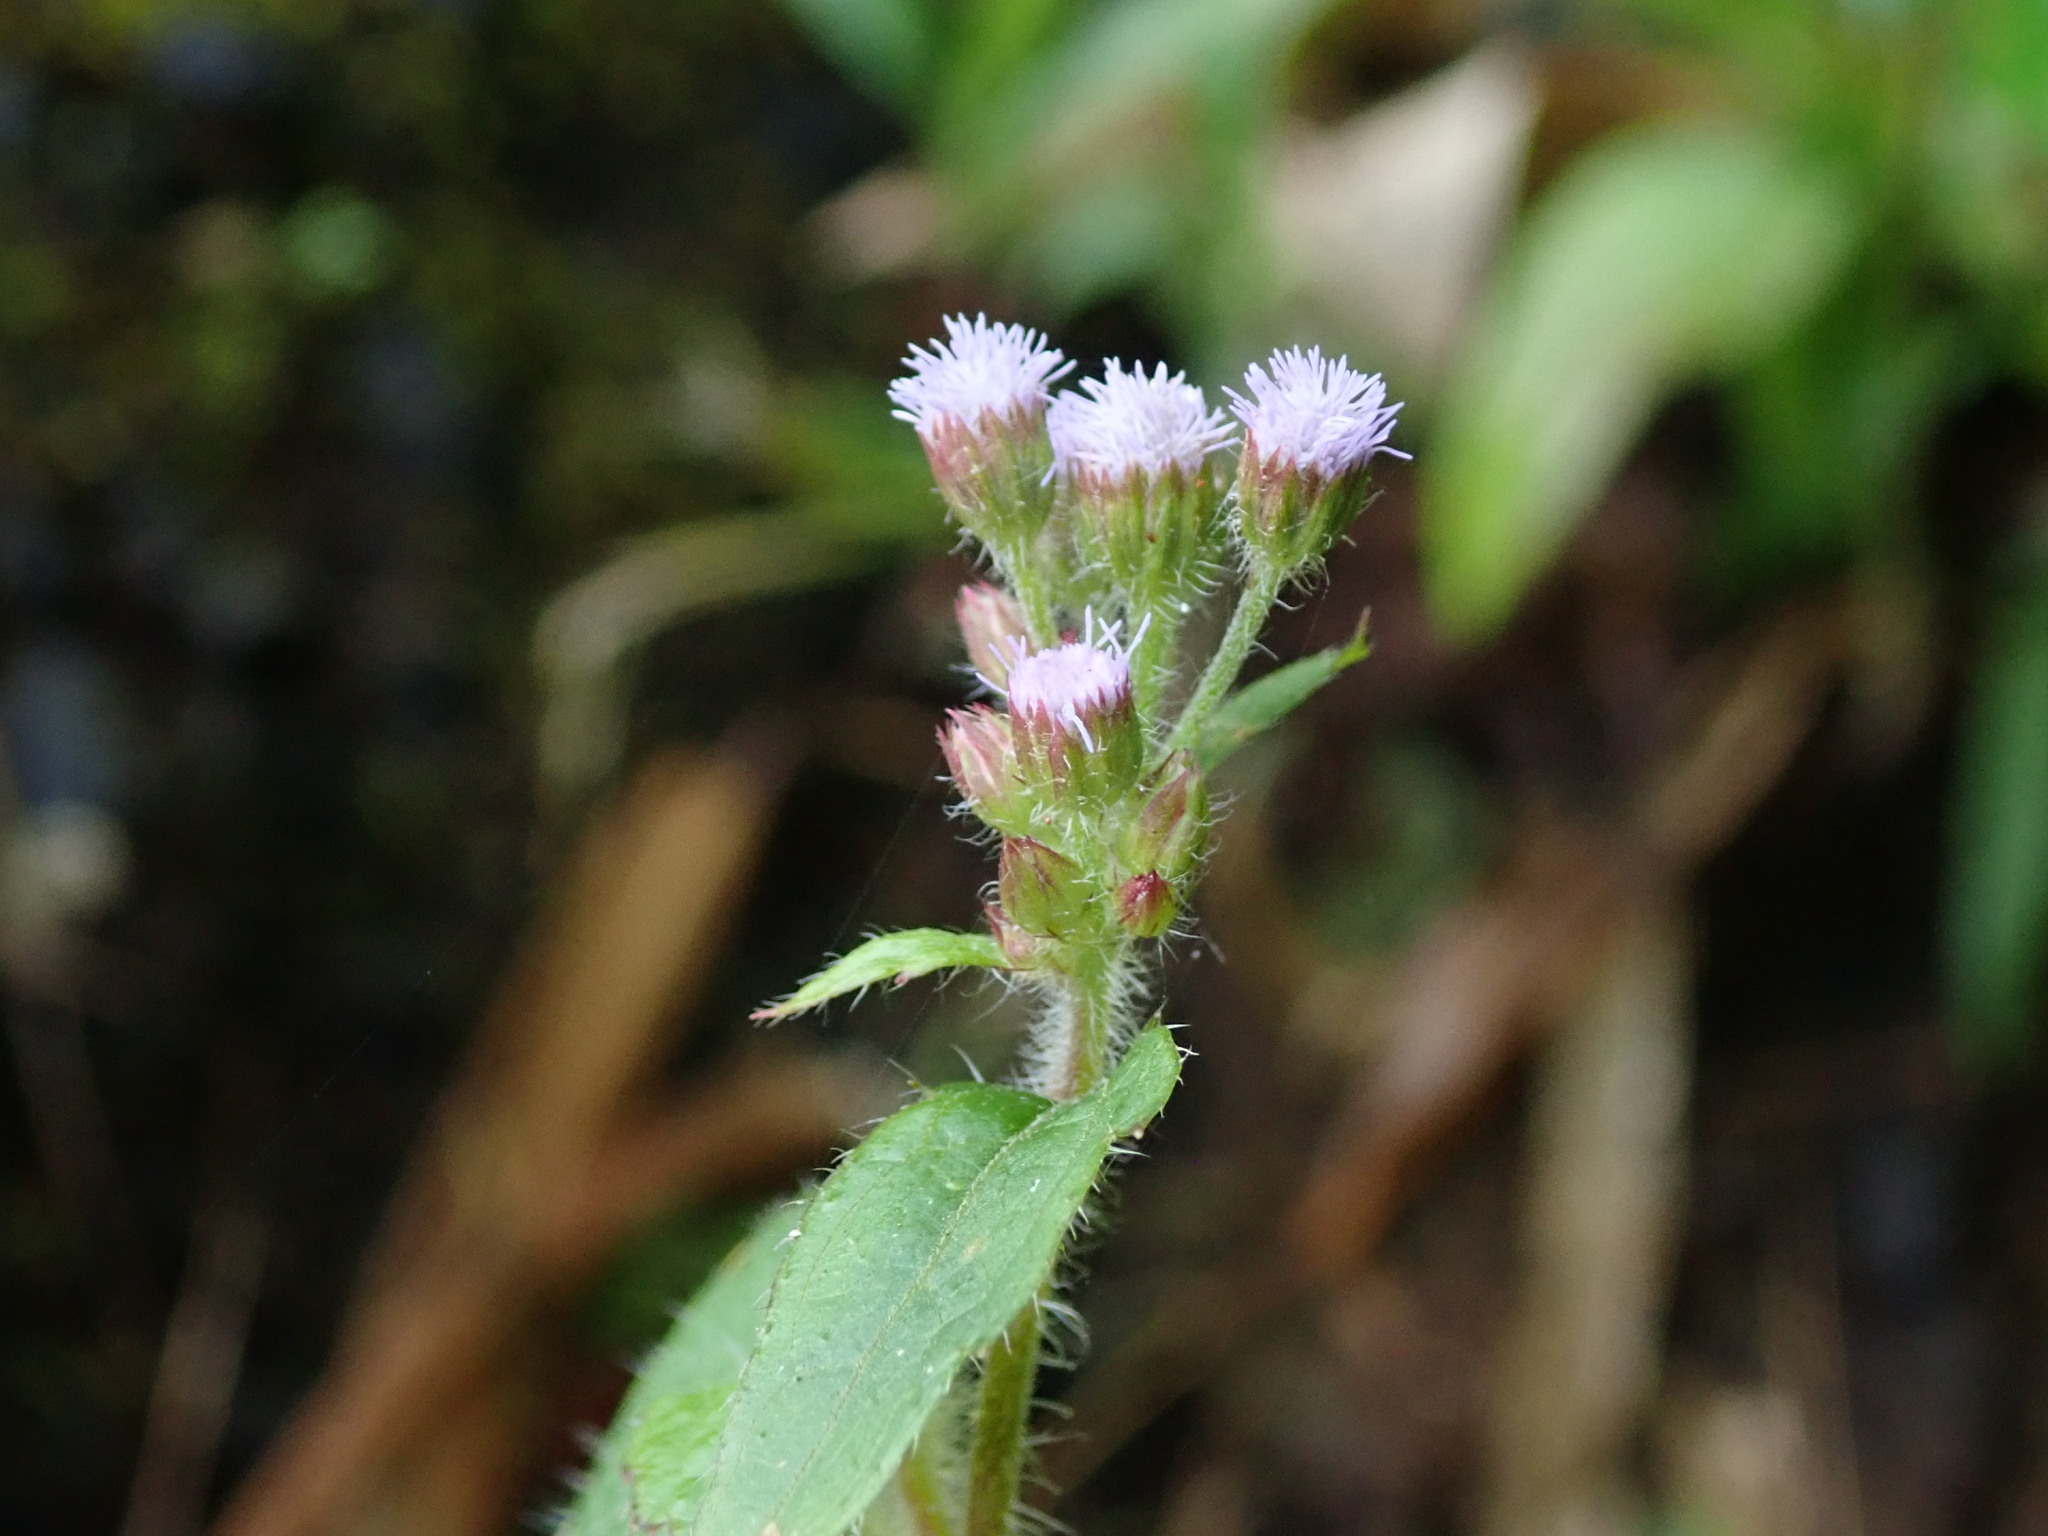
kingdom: Plantae
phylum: Tracheophyta
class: Magnoliopsida
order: Asterales
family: Asteraceae
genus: Ageratum
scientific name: Ageratum conyzoides
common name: Tropical whiteweed
